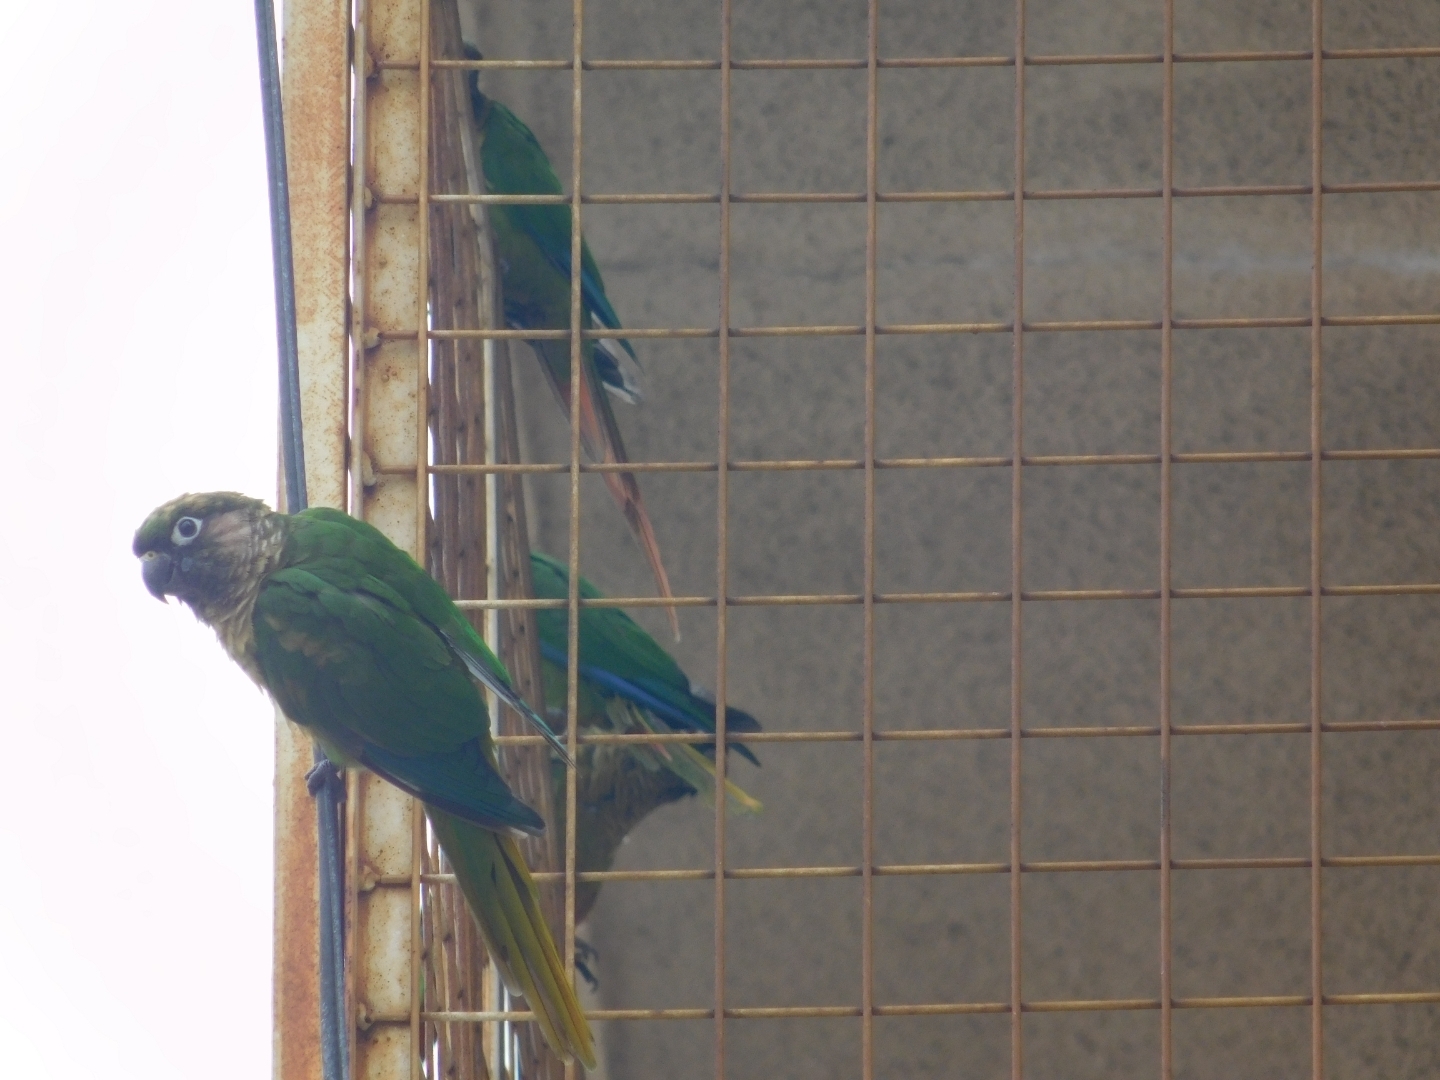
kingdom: Animalia
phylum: Chordata
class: Aves
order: Psittaciformes
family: Psittacidae
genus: Pyrrhura
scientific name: Pyrrhura frontalis
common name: Maroon-bellied parakeet
